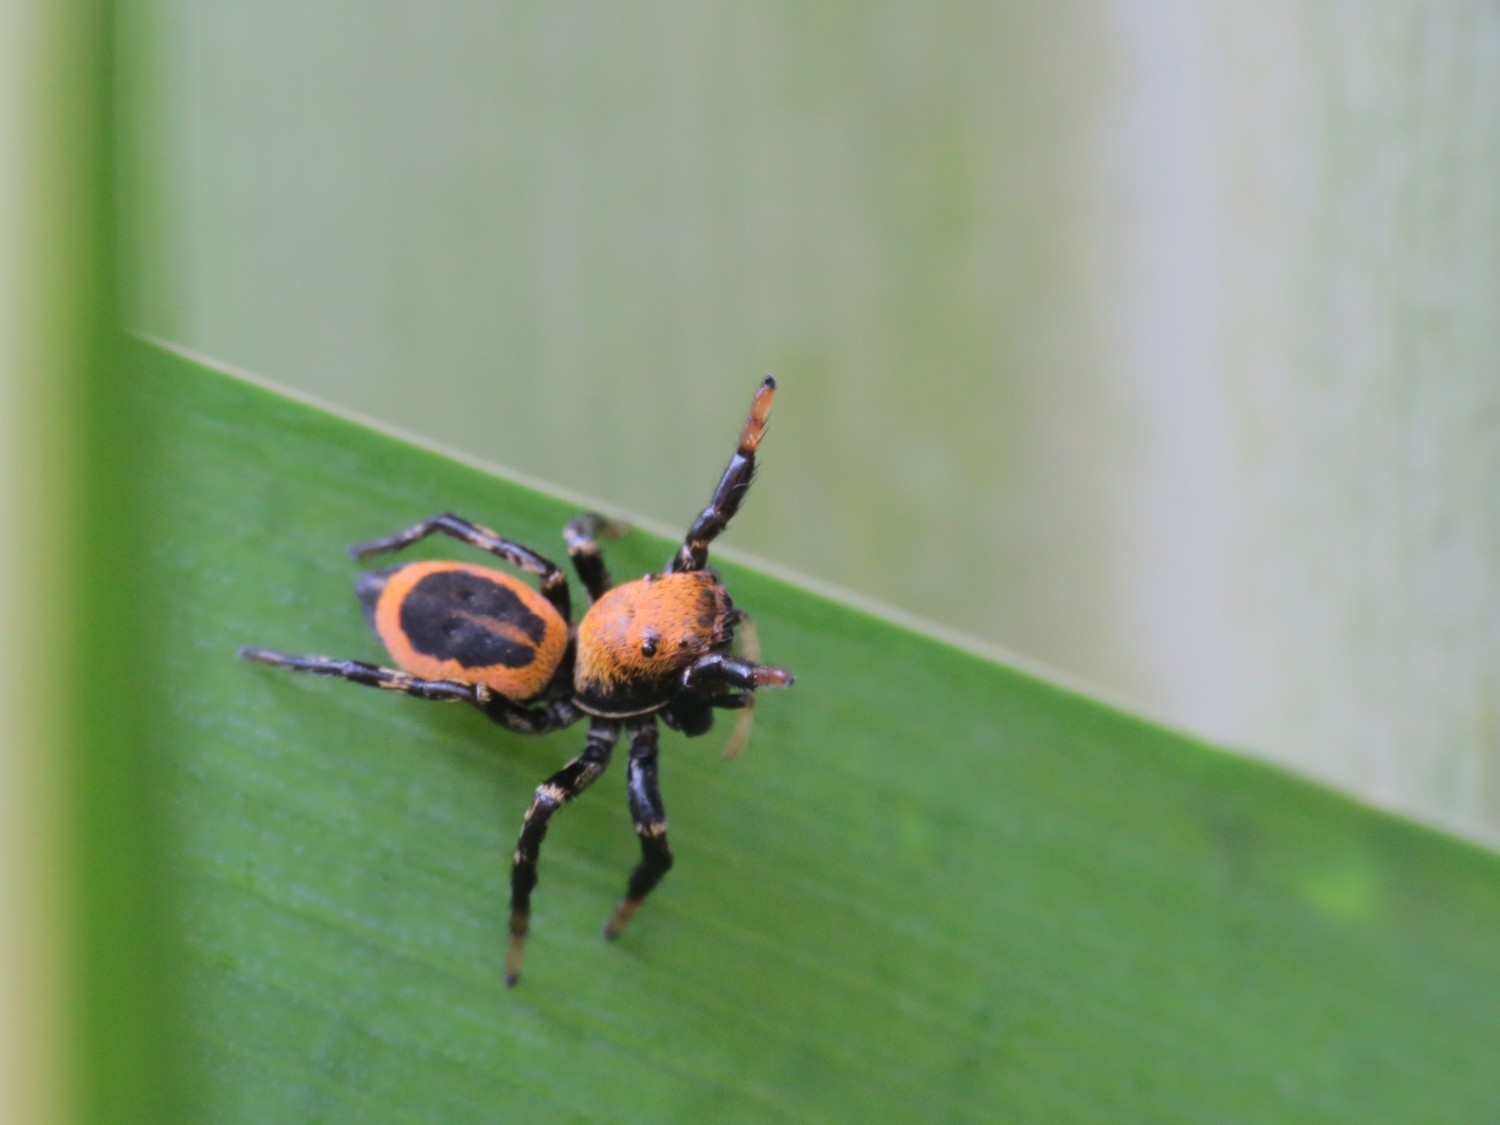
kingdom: Animalia
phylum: Arthropoda
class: Arachnida
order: Araneae
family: Salticidae
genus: Phiale
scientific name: Phiale gratiosa
